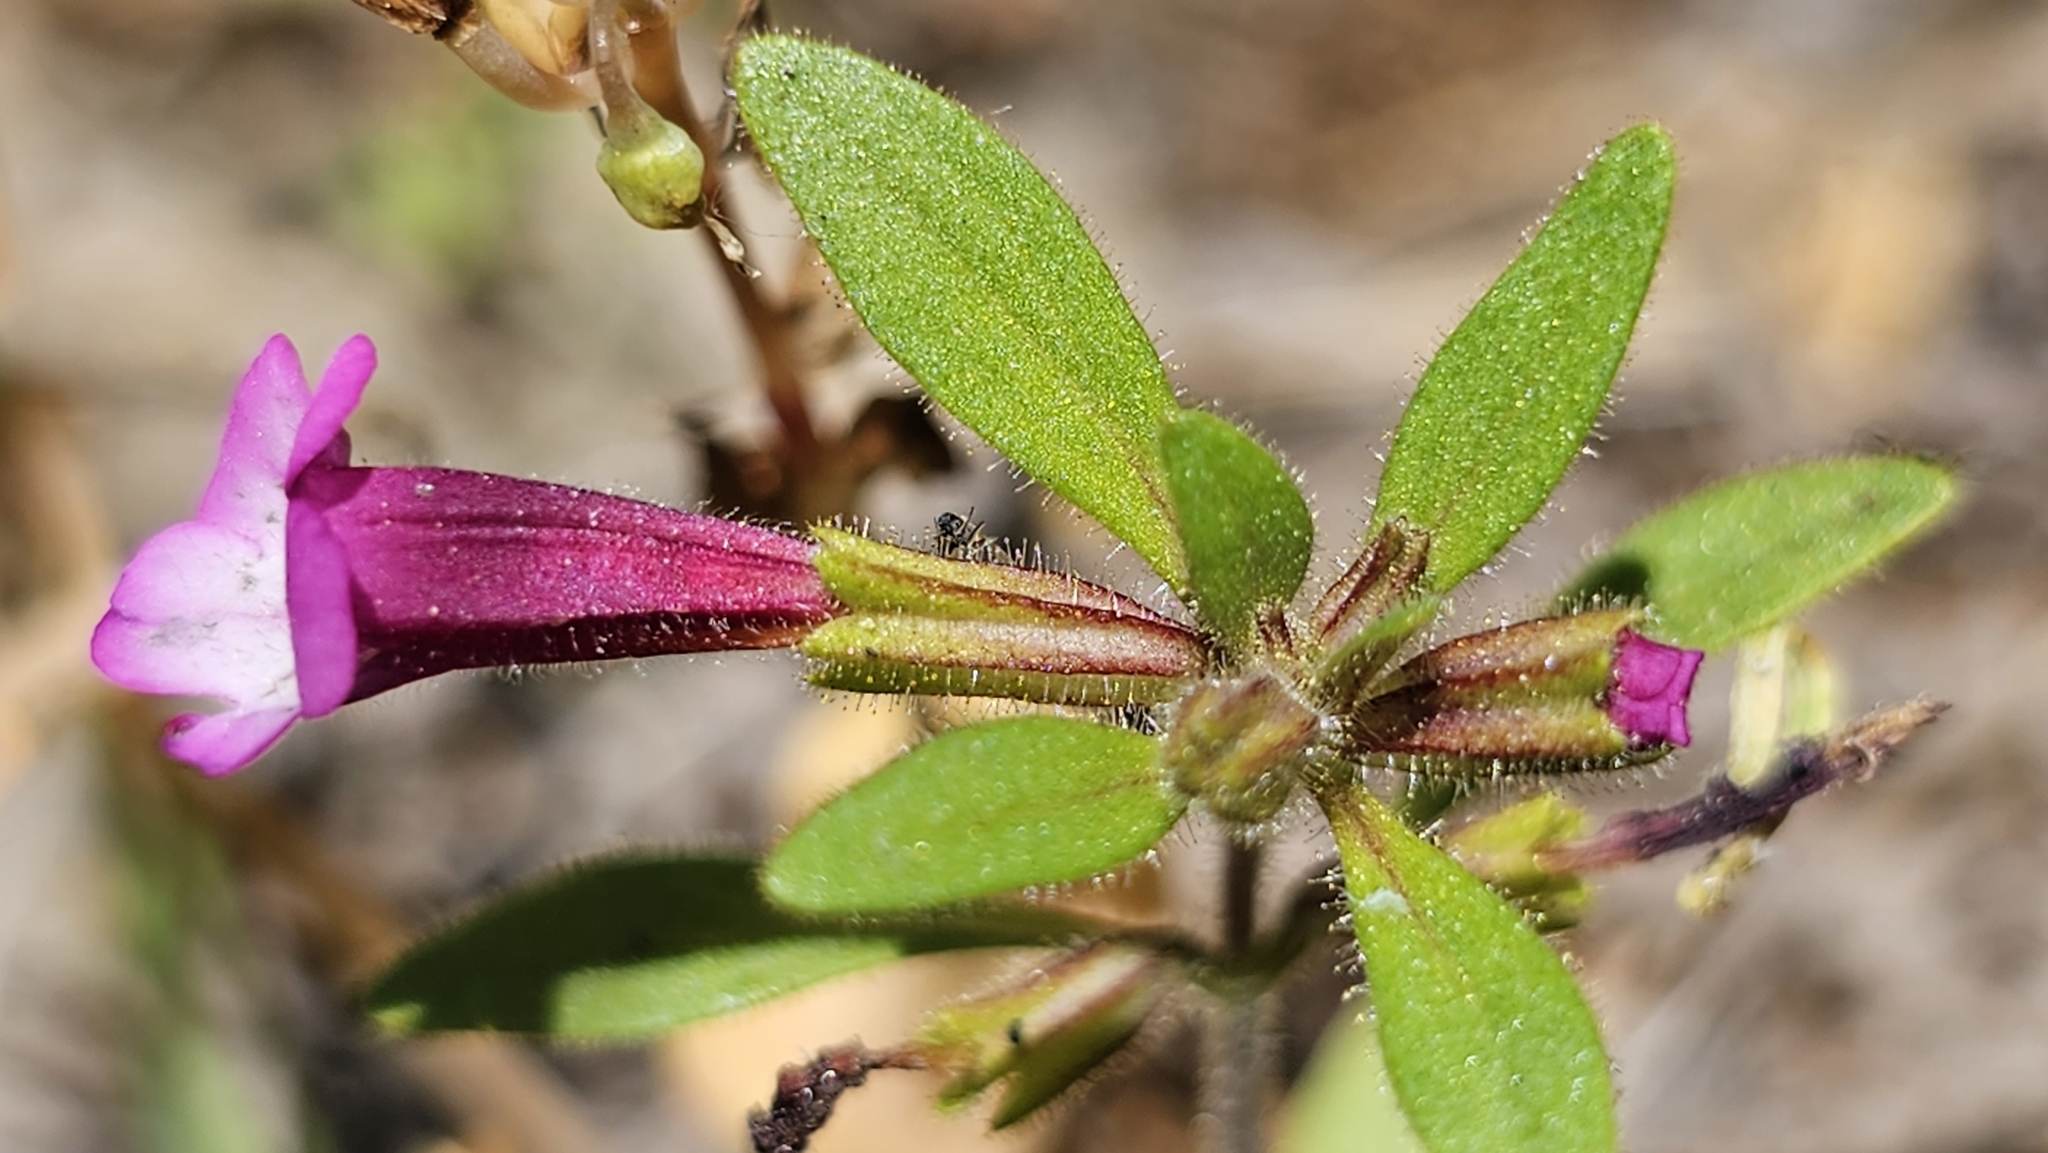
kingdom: Plantae
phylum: Tracheophyta
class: Magnoliopsida
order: Lamiales
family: Phrymaceae
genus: Diplacus
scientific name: Diplacus torreyi
